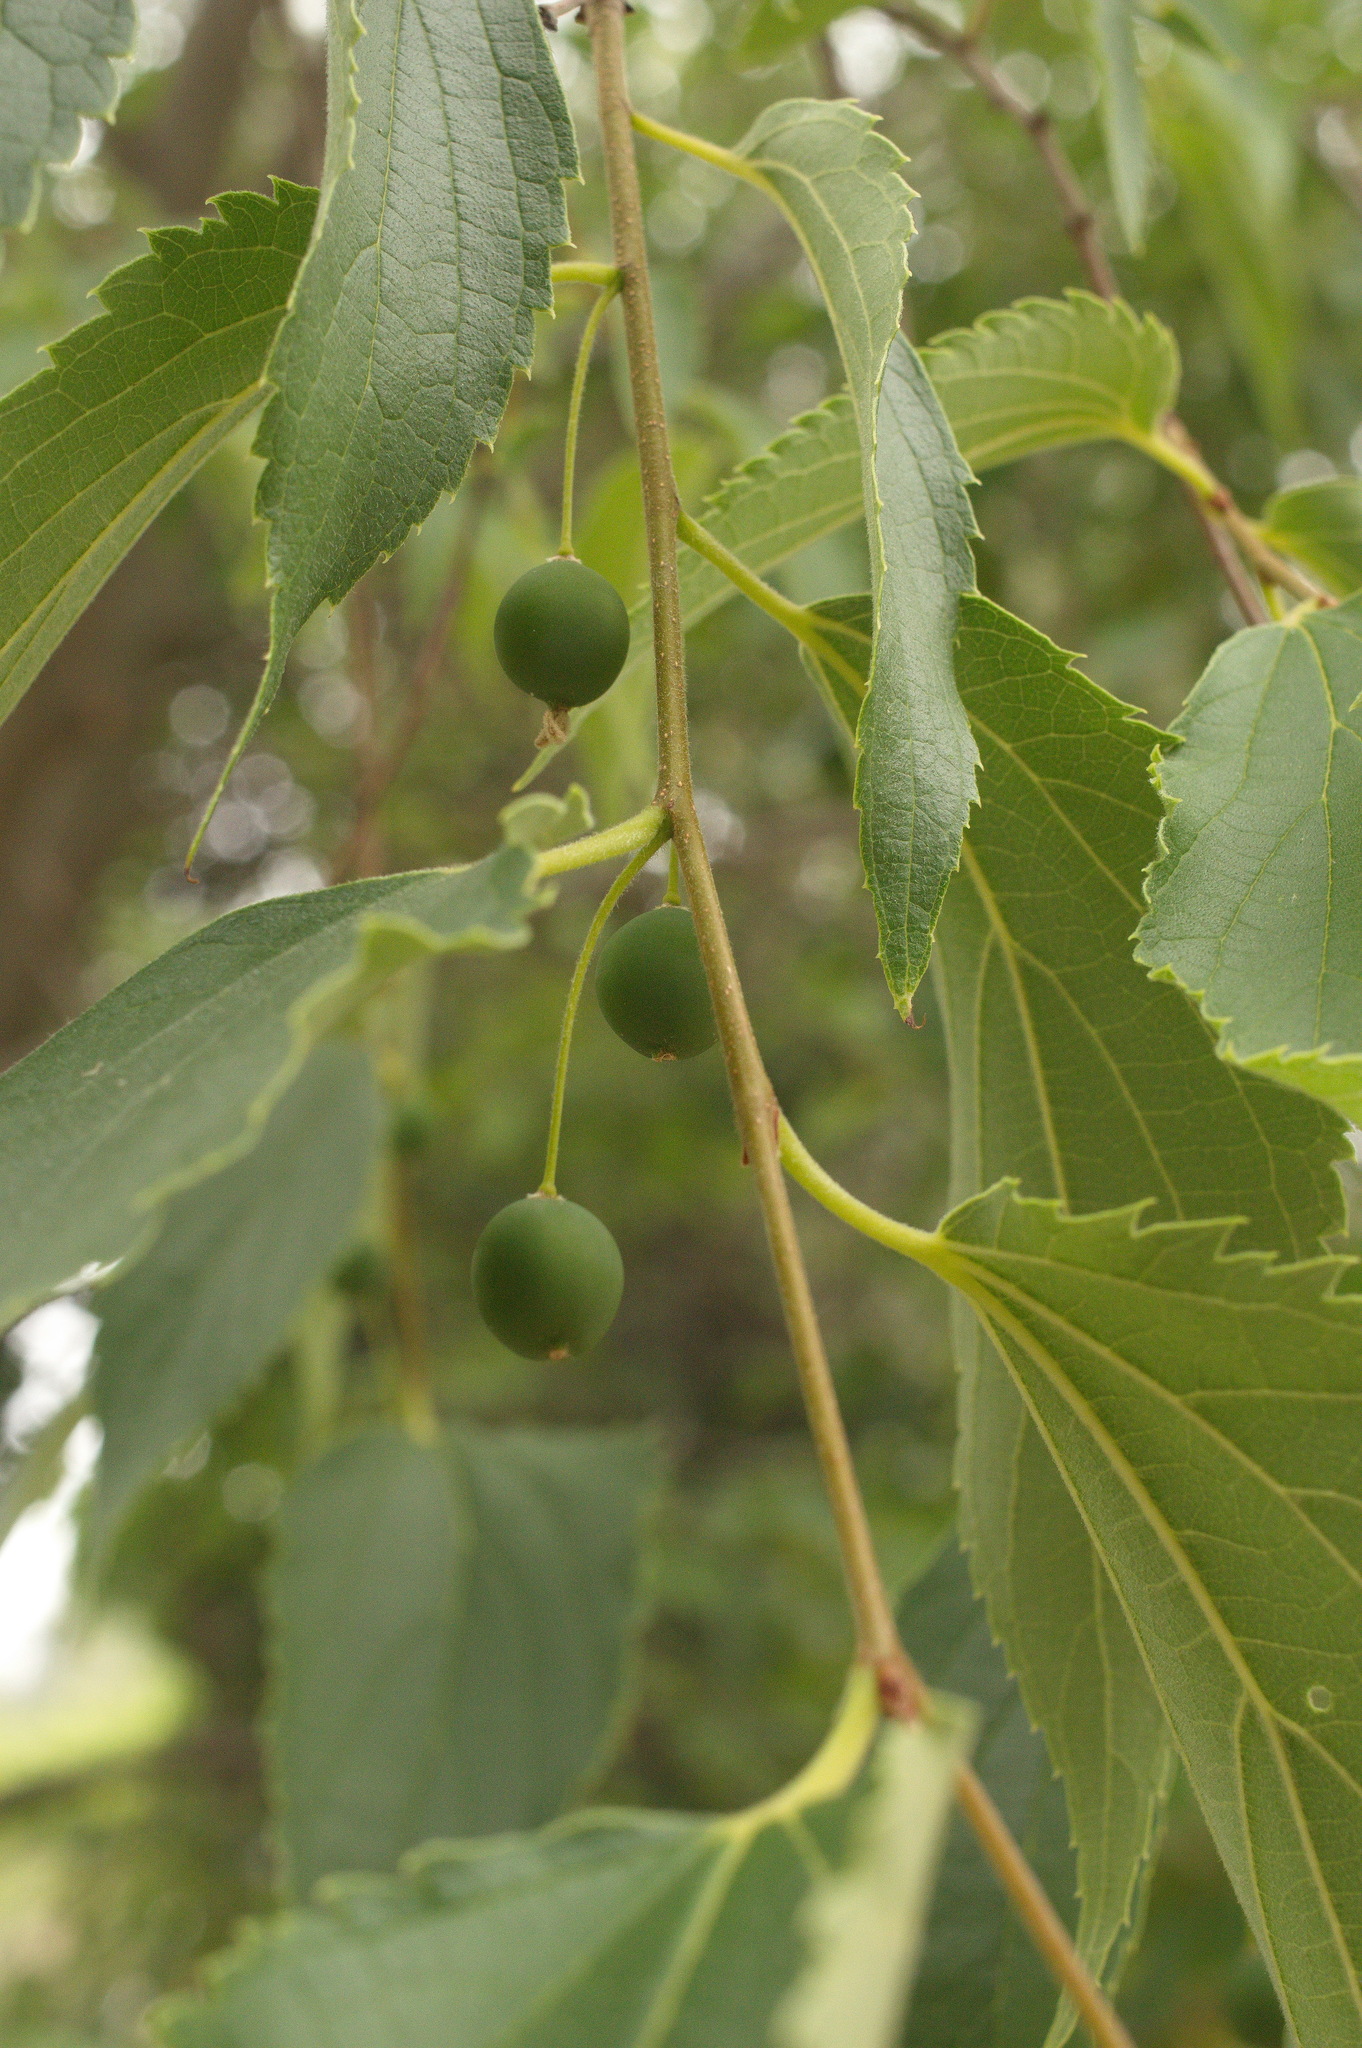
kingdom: Plantae
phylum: Tracheophyta
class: Magnoliopsida
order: Rosales
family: Cannabaceae
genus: Celtis
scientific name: Celtis australis
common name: European hackberry
